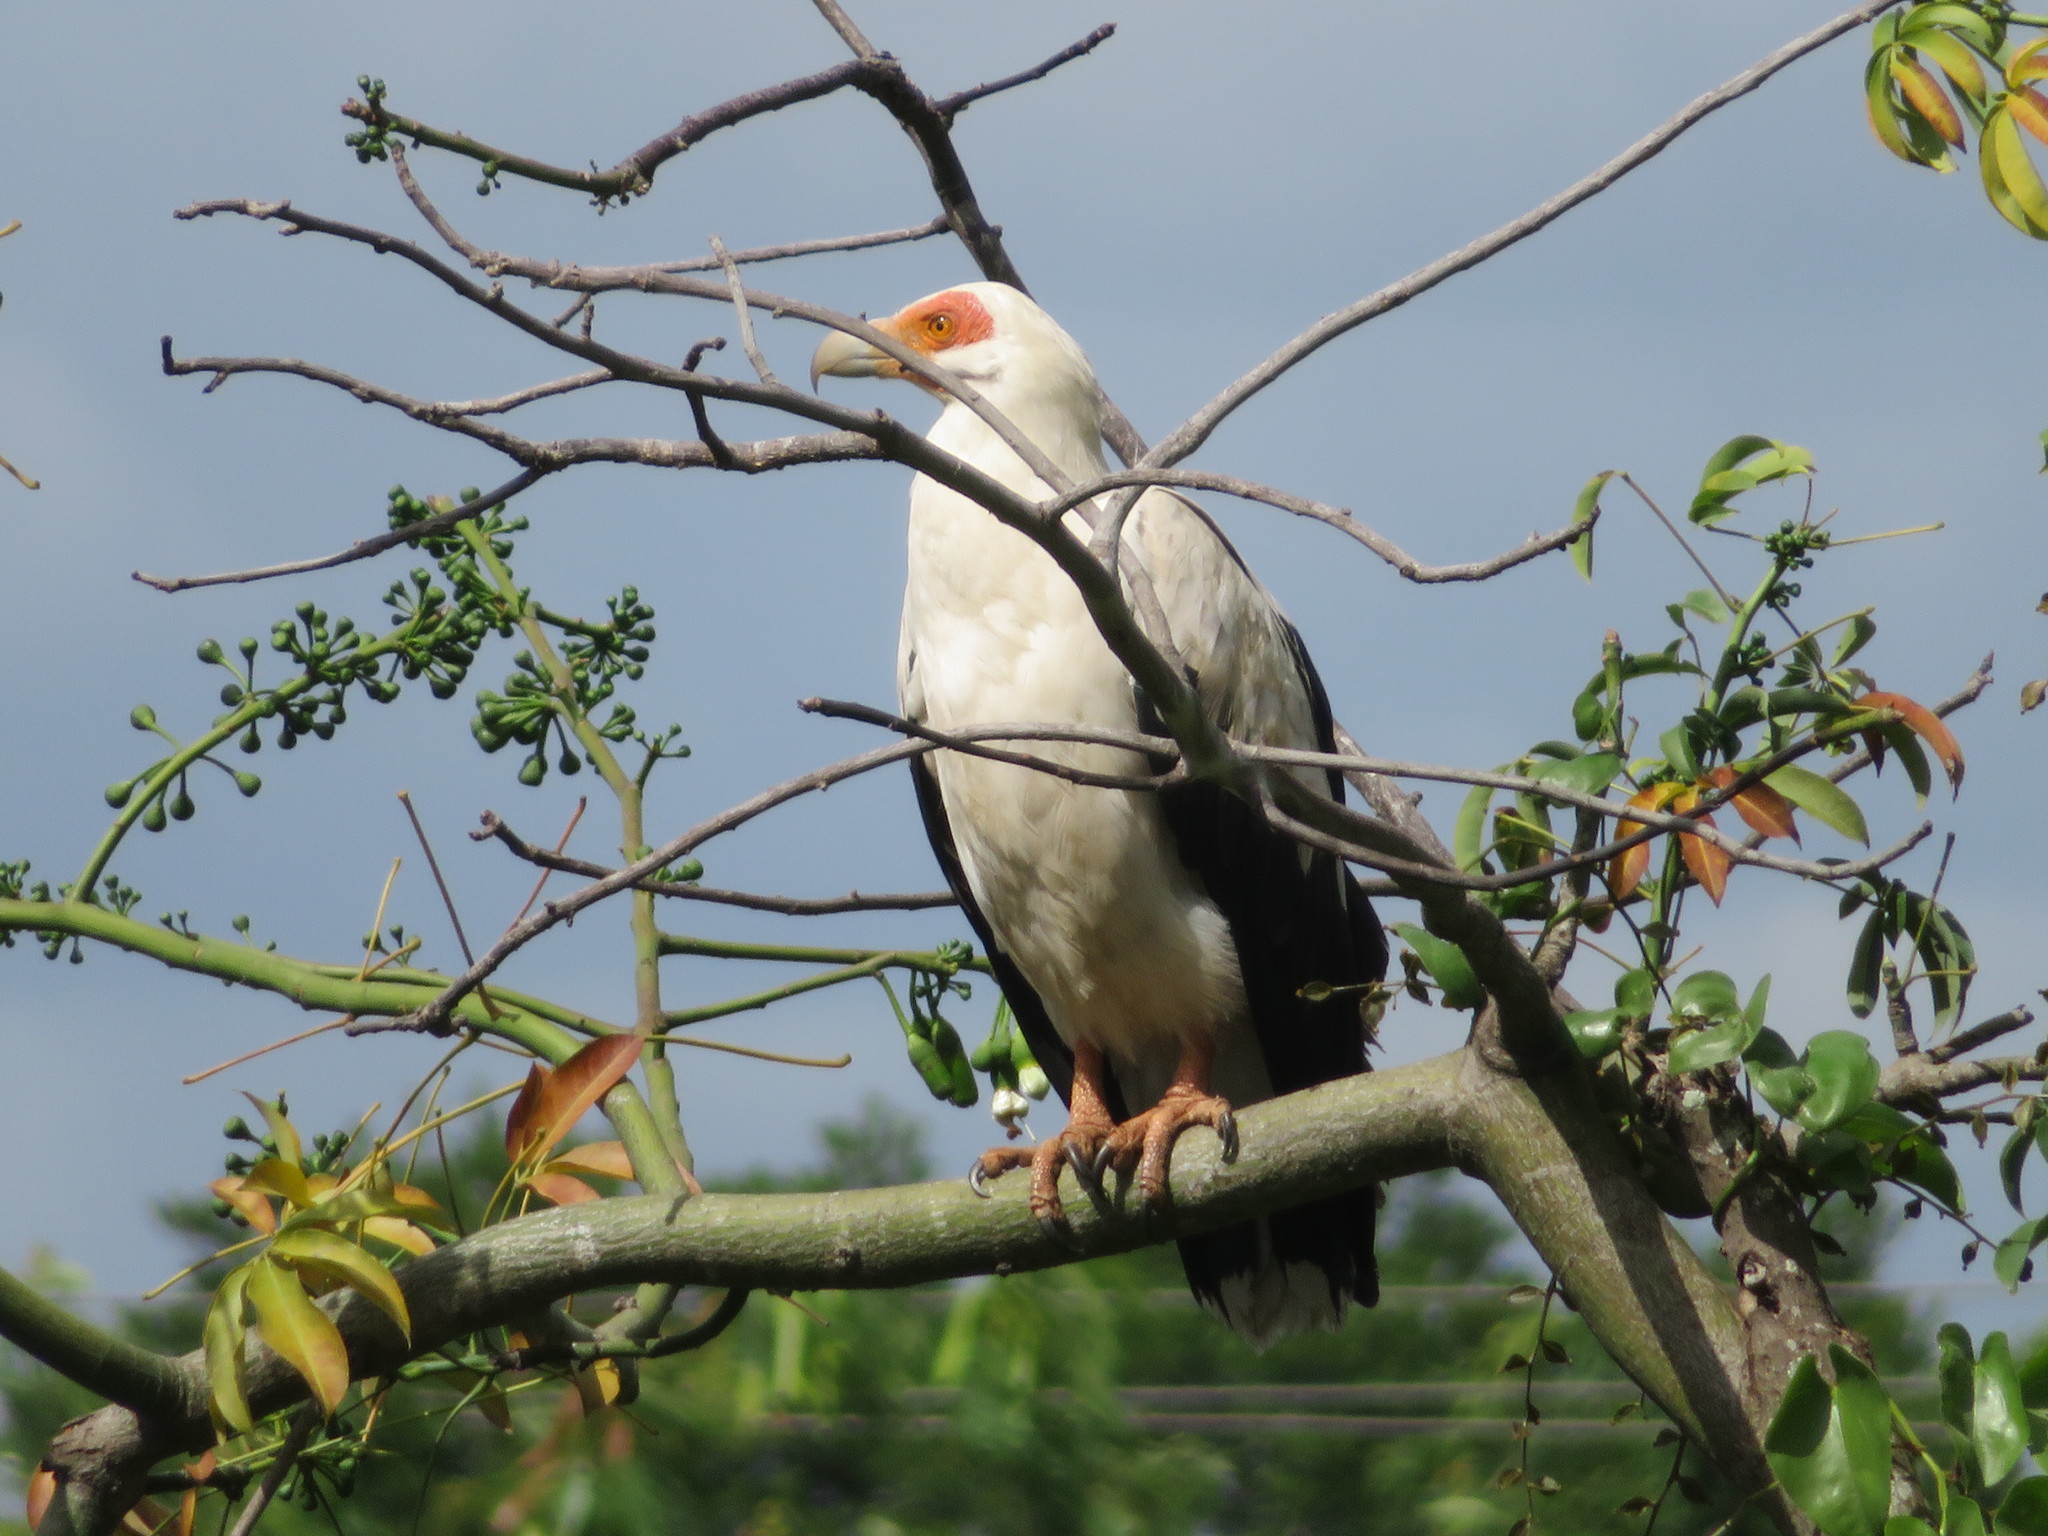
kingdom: Animalia
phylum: Chordata
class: Aves
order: Accipitriformes
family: Accipitridae
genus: Gypohierax
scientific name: Gypohierax angolensis
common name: Palm-nut vulture
